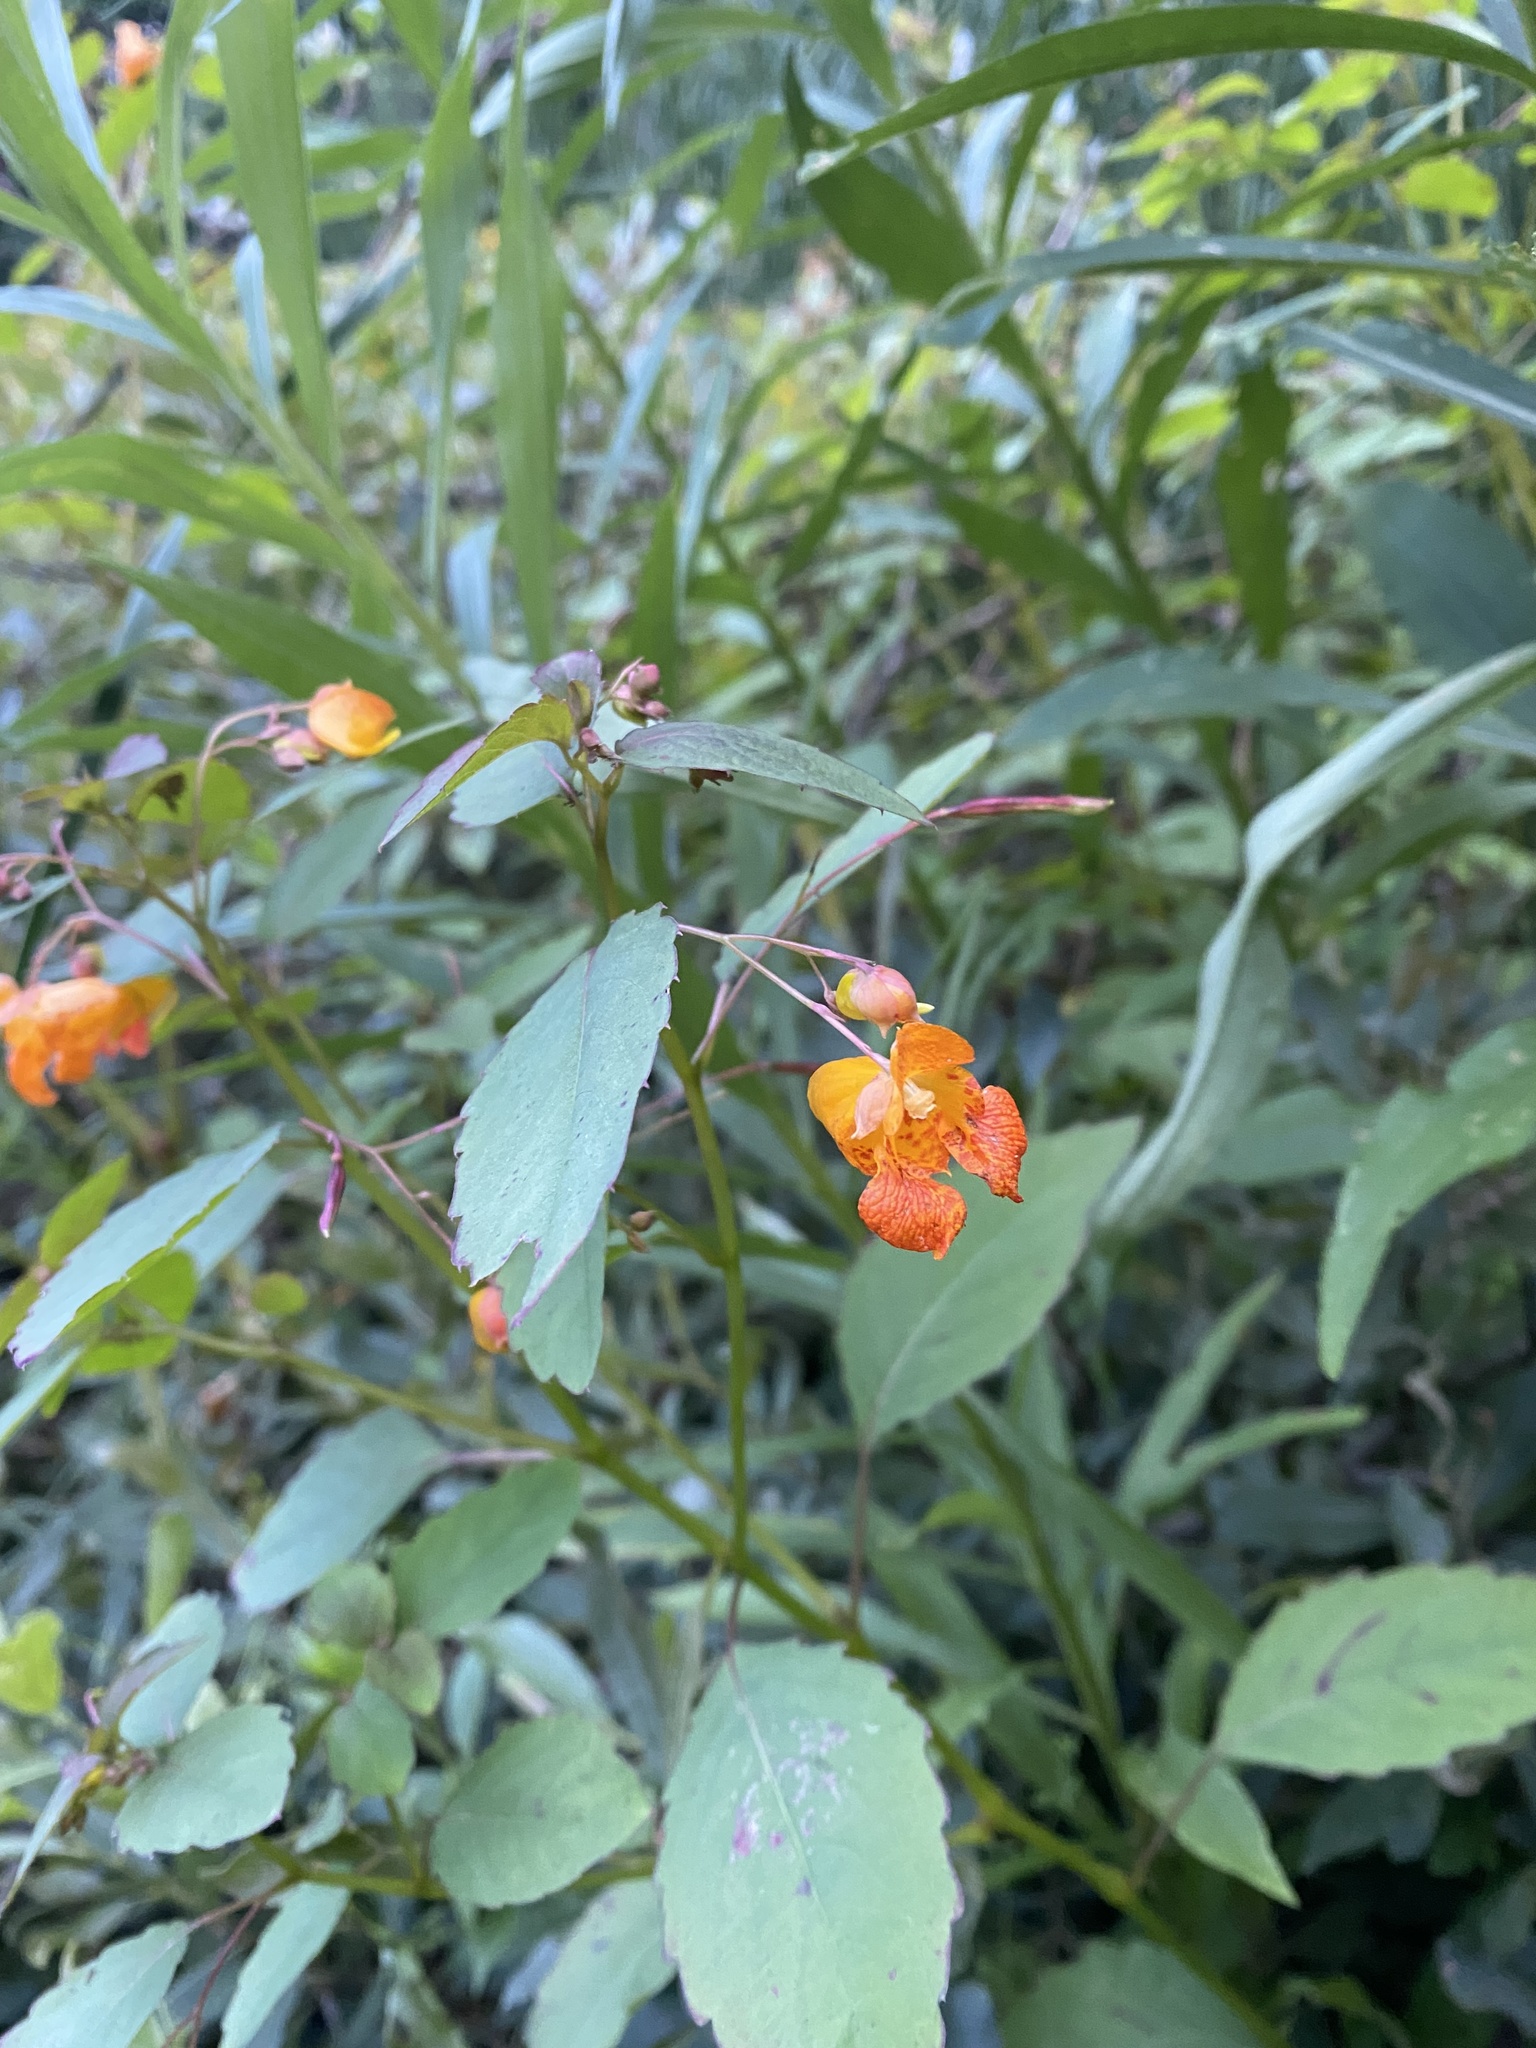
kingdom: Plantae
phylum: Tracheophyta
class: Magnoliopsida
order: Ericales
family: Balsaminaceae
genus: Impatiens
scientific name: Impatiens capensis
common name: Orange balsam
